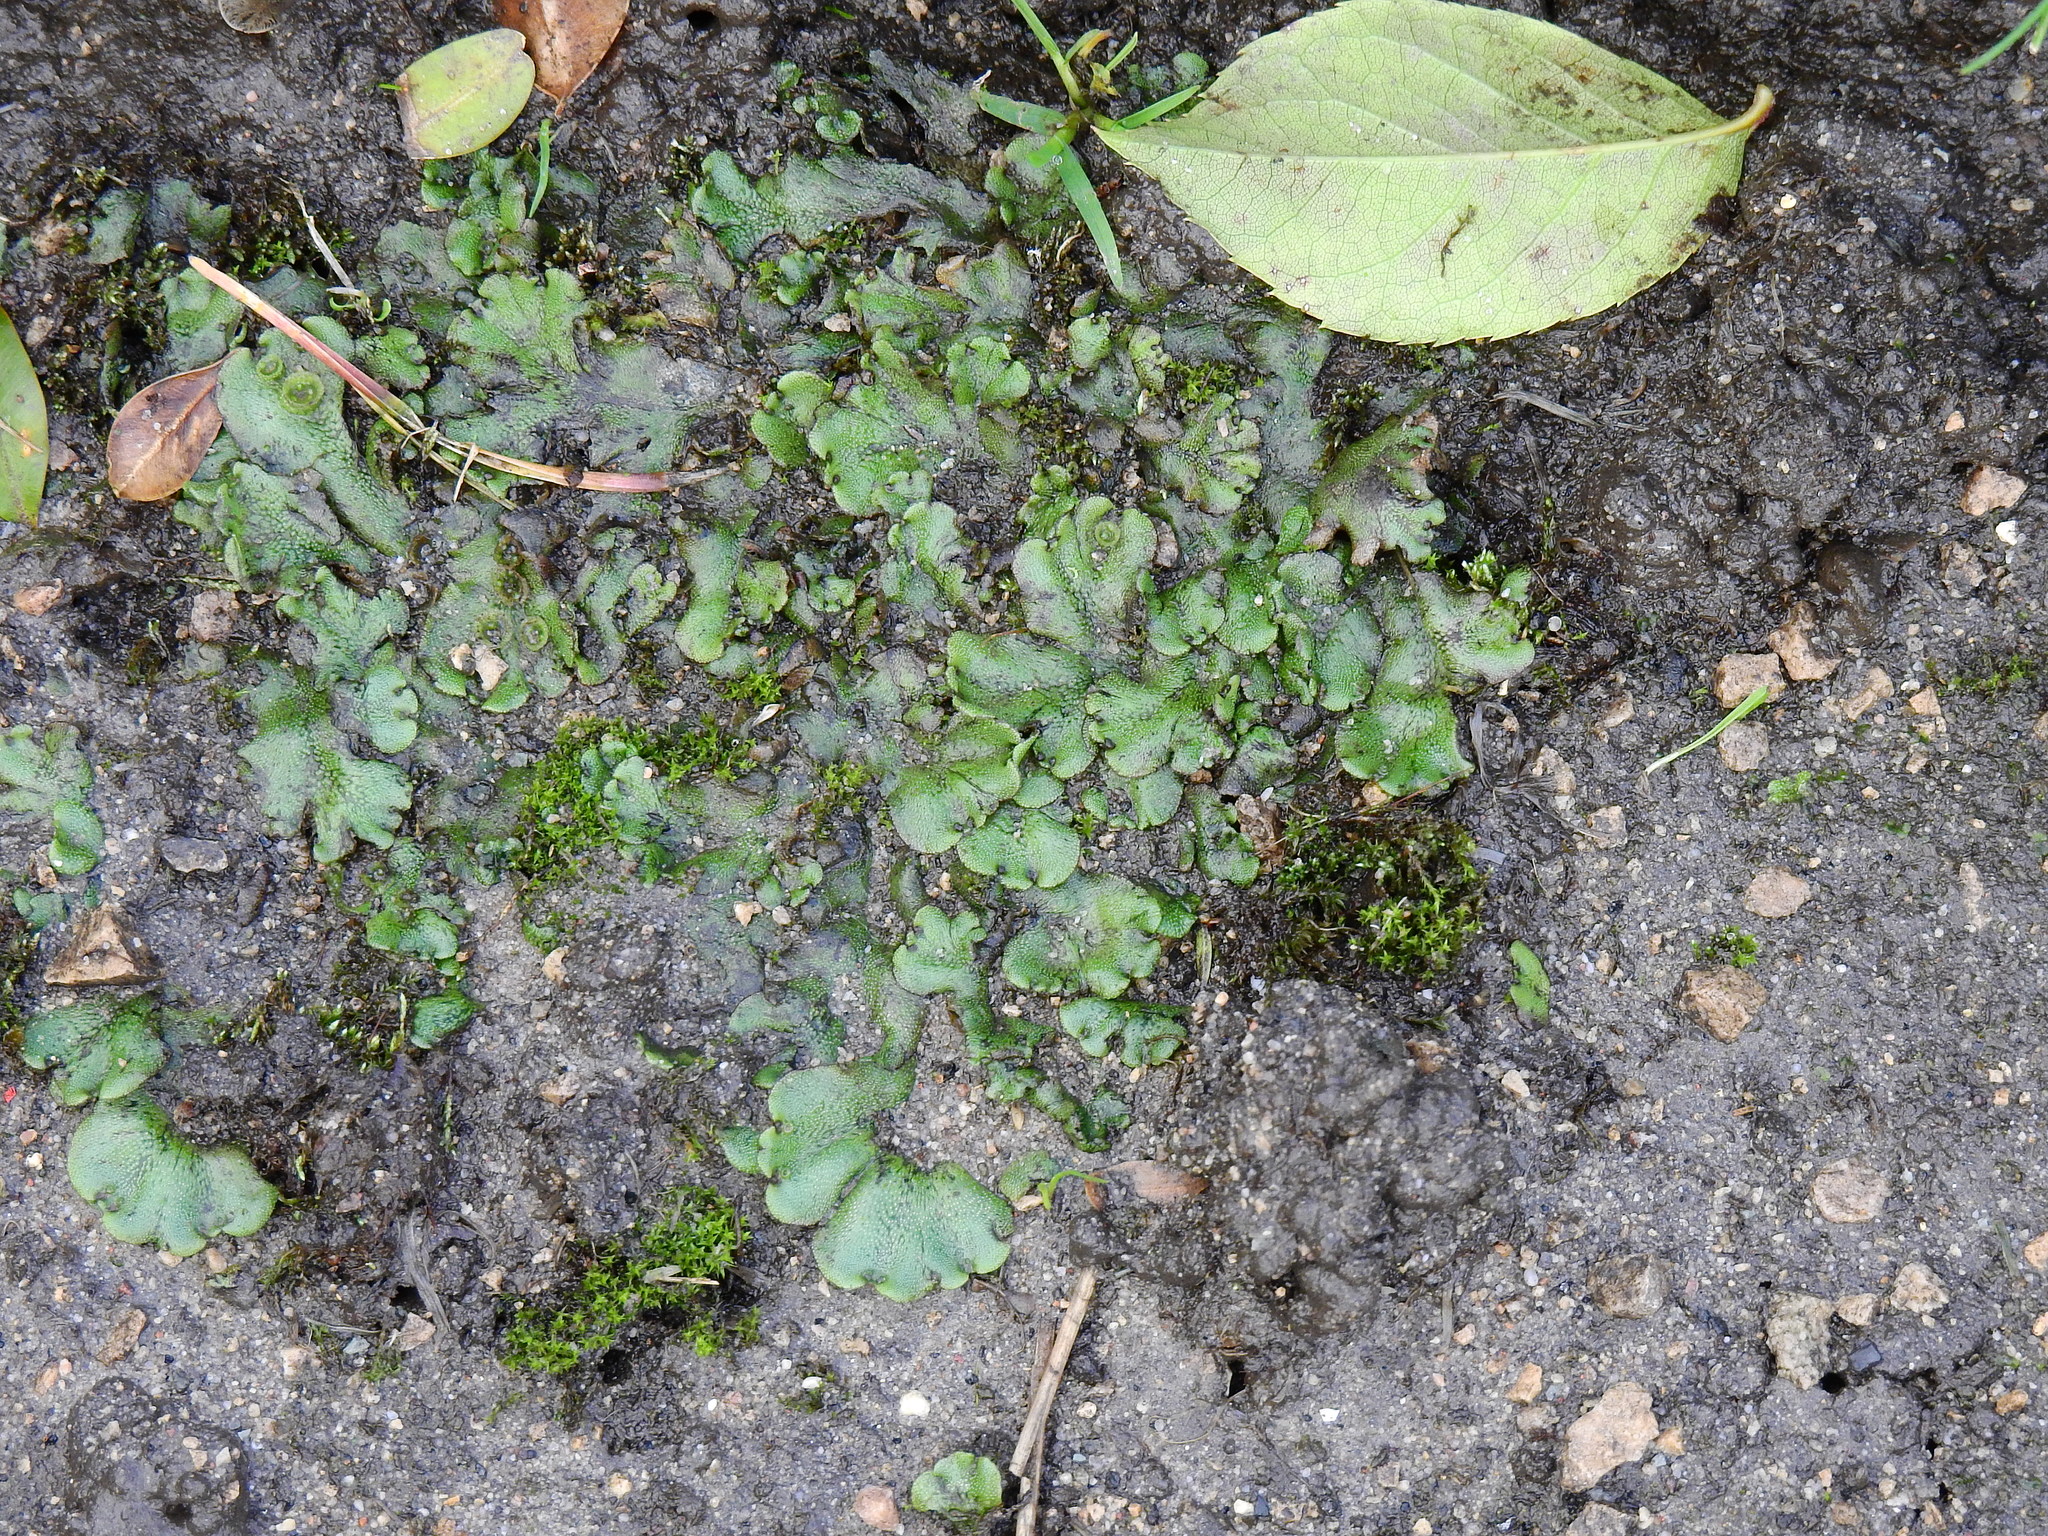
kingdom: Plantae
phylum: Marchantiophyta
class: Marchantiopsida
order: Marchantiales
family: Marchantiaceae
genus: Marchantia
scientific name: Marchantia polymorpha
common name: Common liverwort
